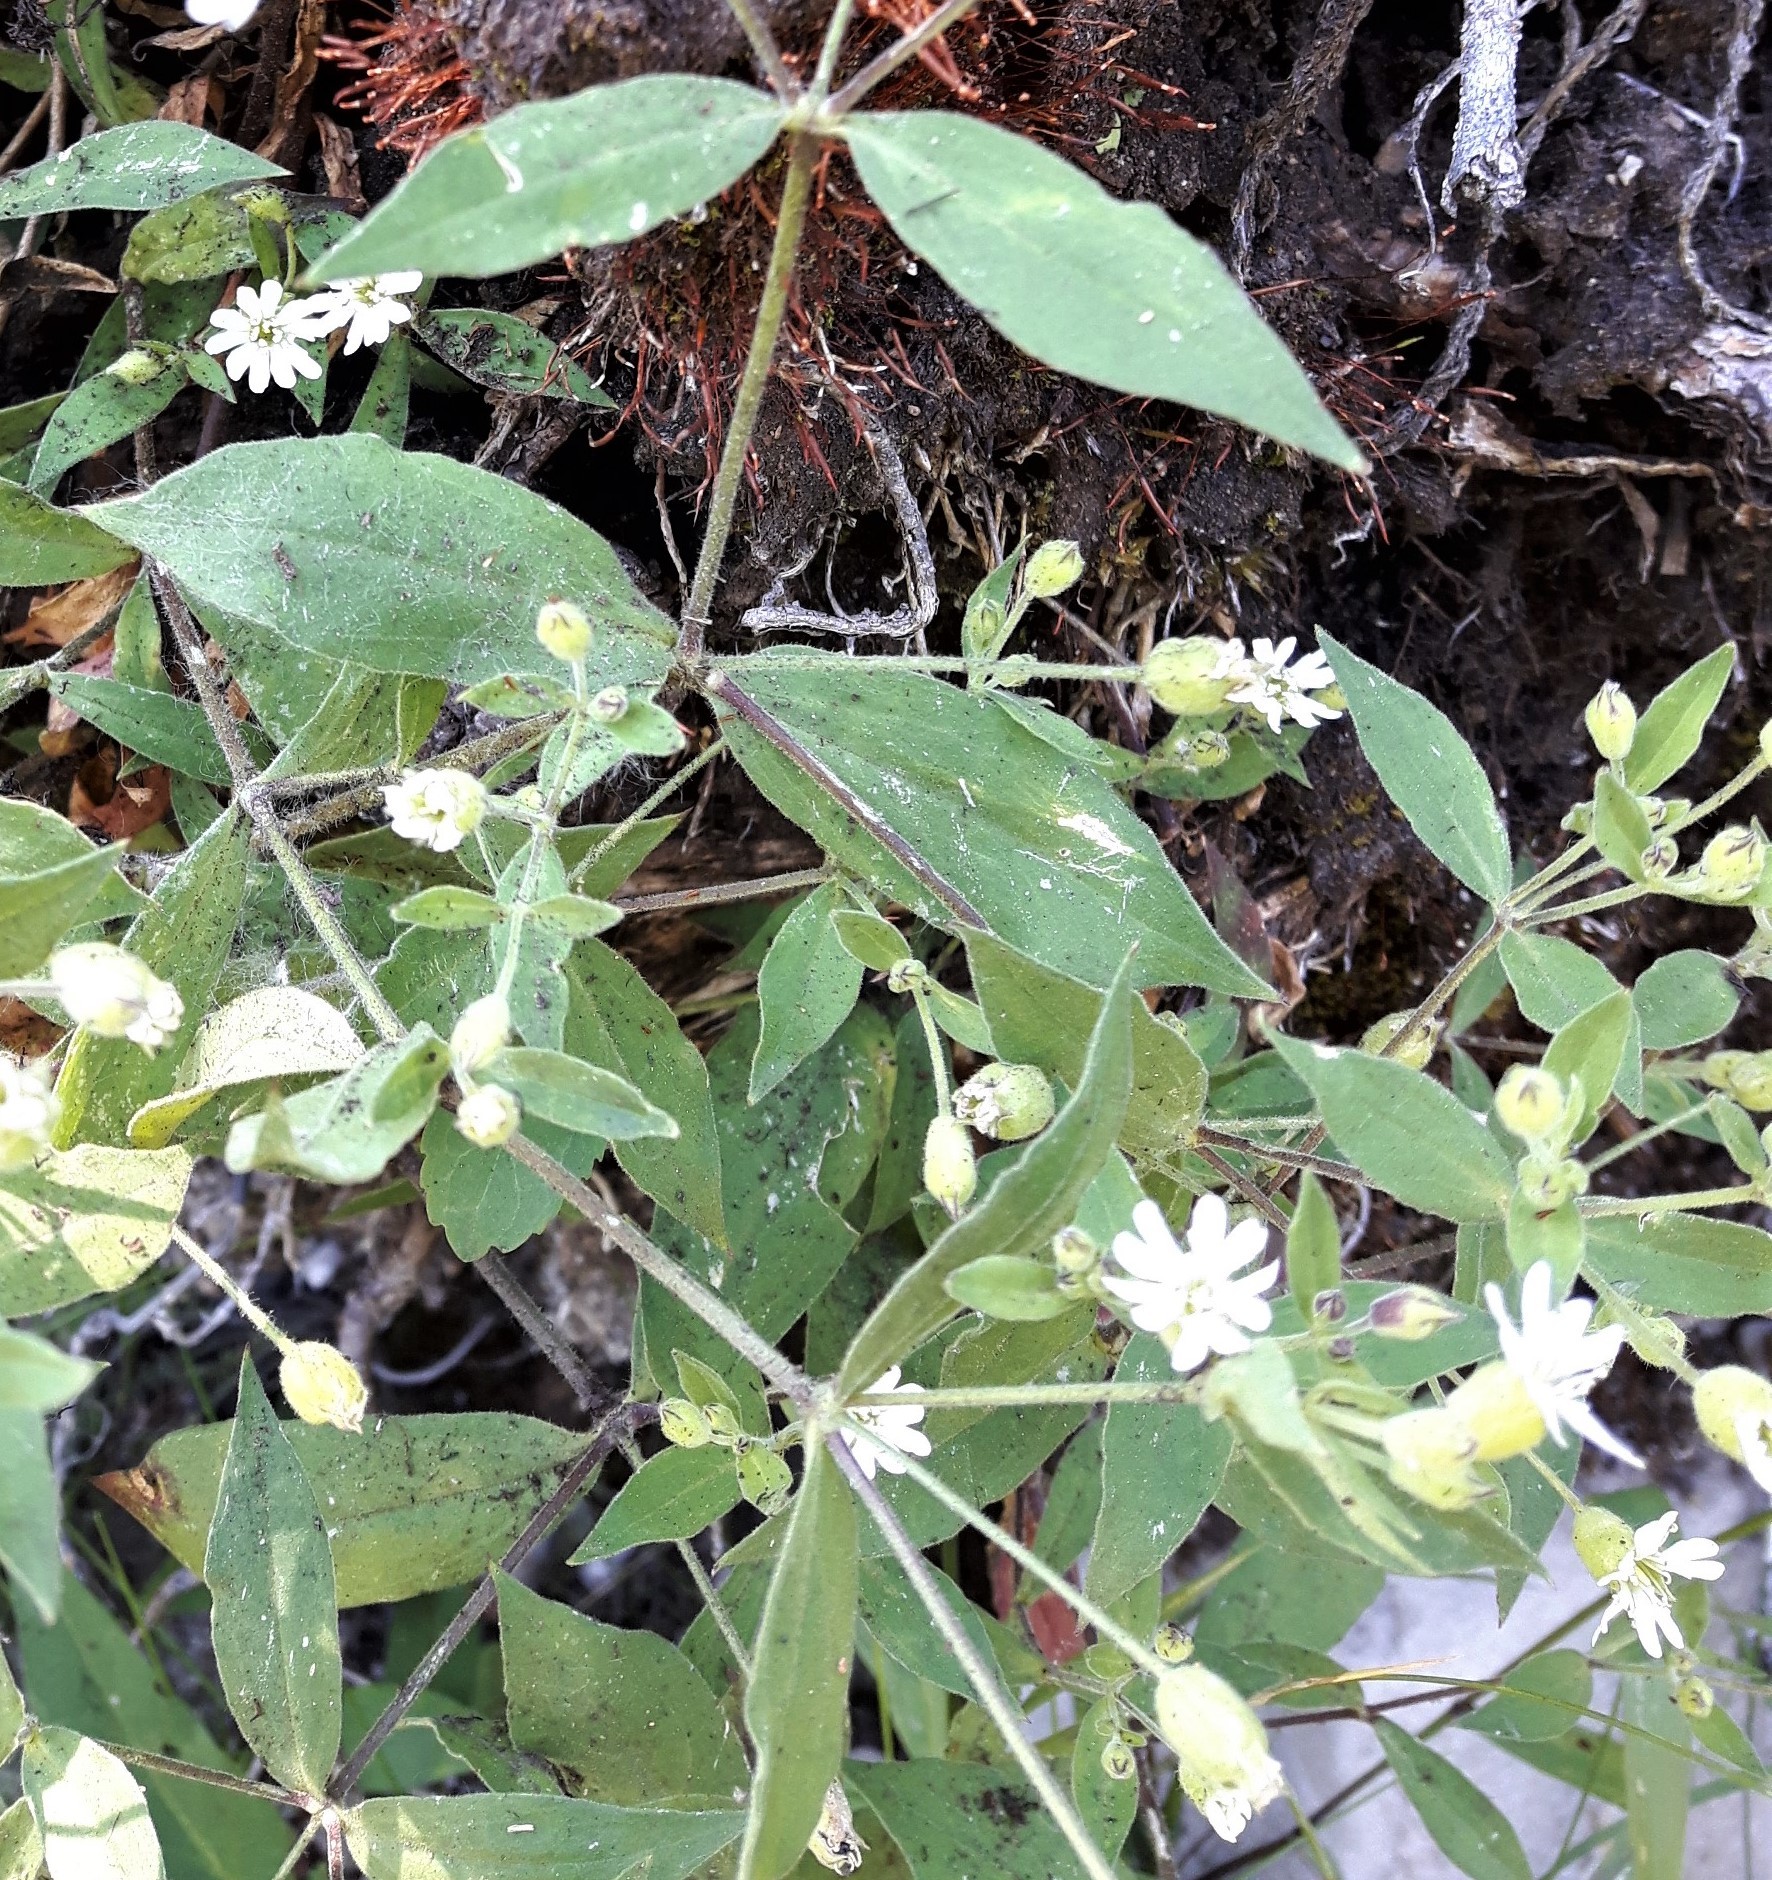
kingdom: Plantae
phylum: Tracheophyta
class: Magnoliopsida
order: Caryophyllales
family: Caryophyllaceae
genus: Silene
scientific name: Silene menziesii
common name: Menzies's catchfly
